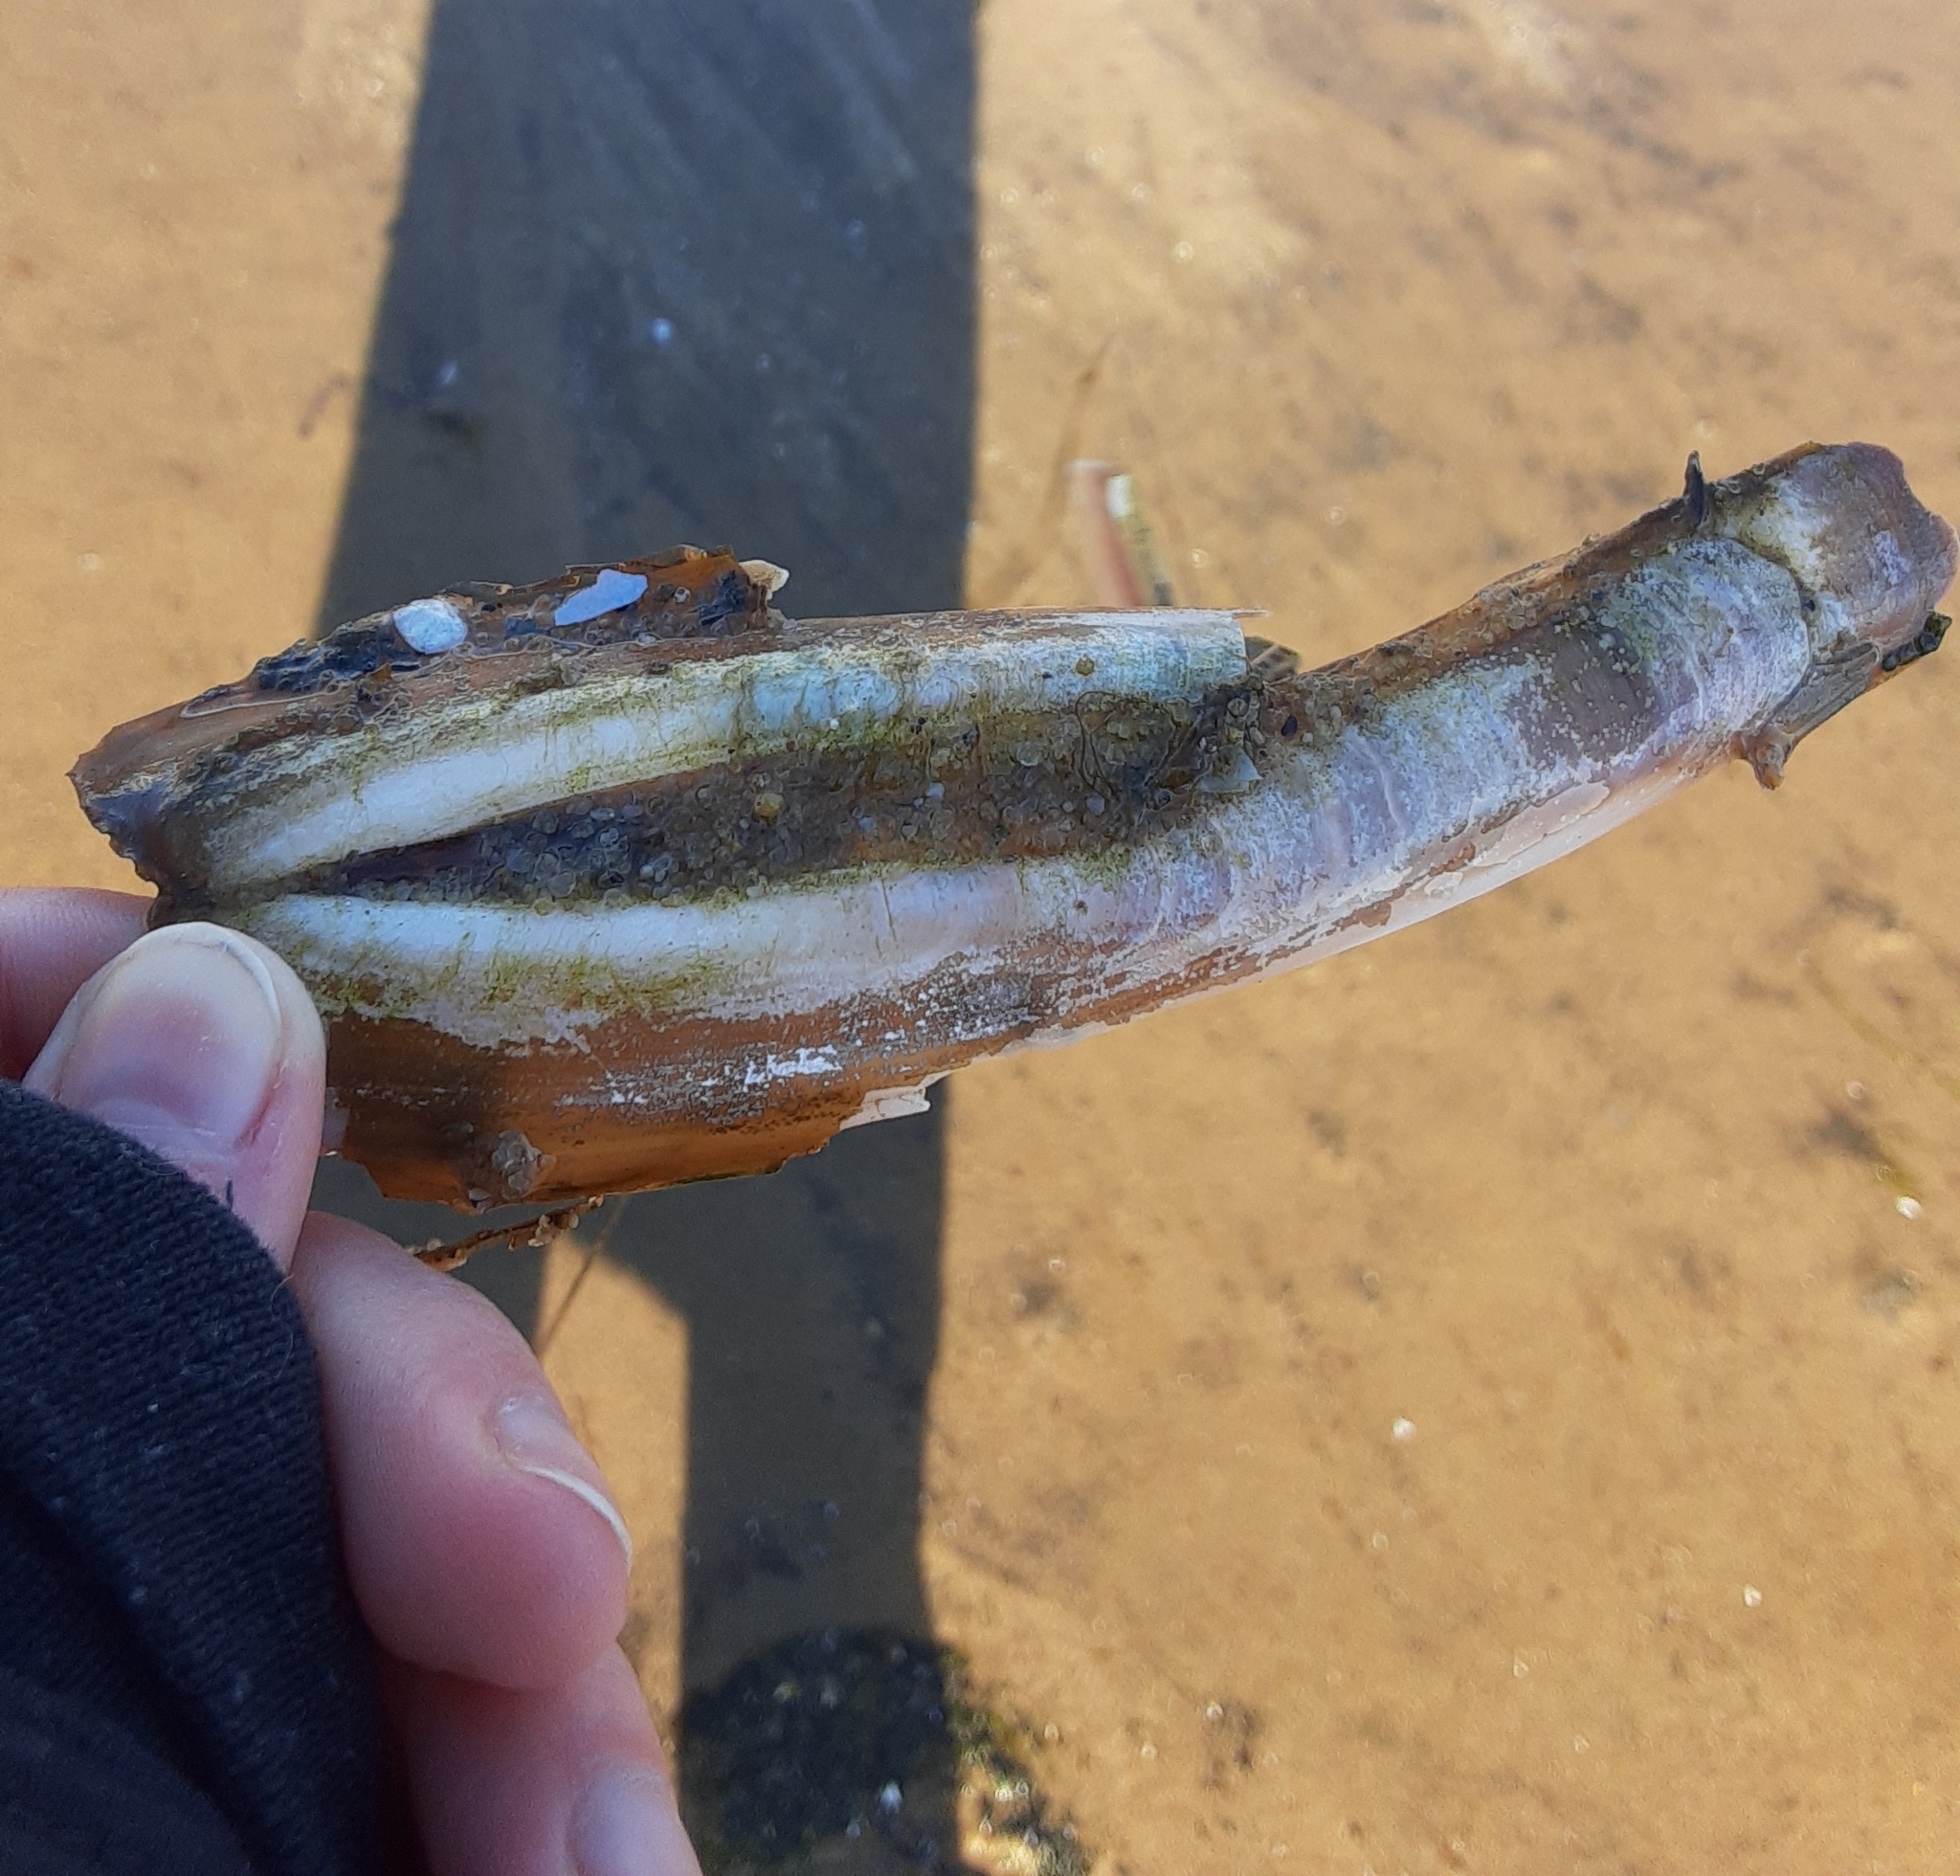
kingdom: Animalia
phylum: Mollusca
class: Bivalvia
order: Adapedonta
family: Pharidae
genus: Ensis
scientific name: Ensis leei
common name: American jack knife clam
